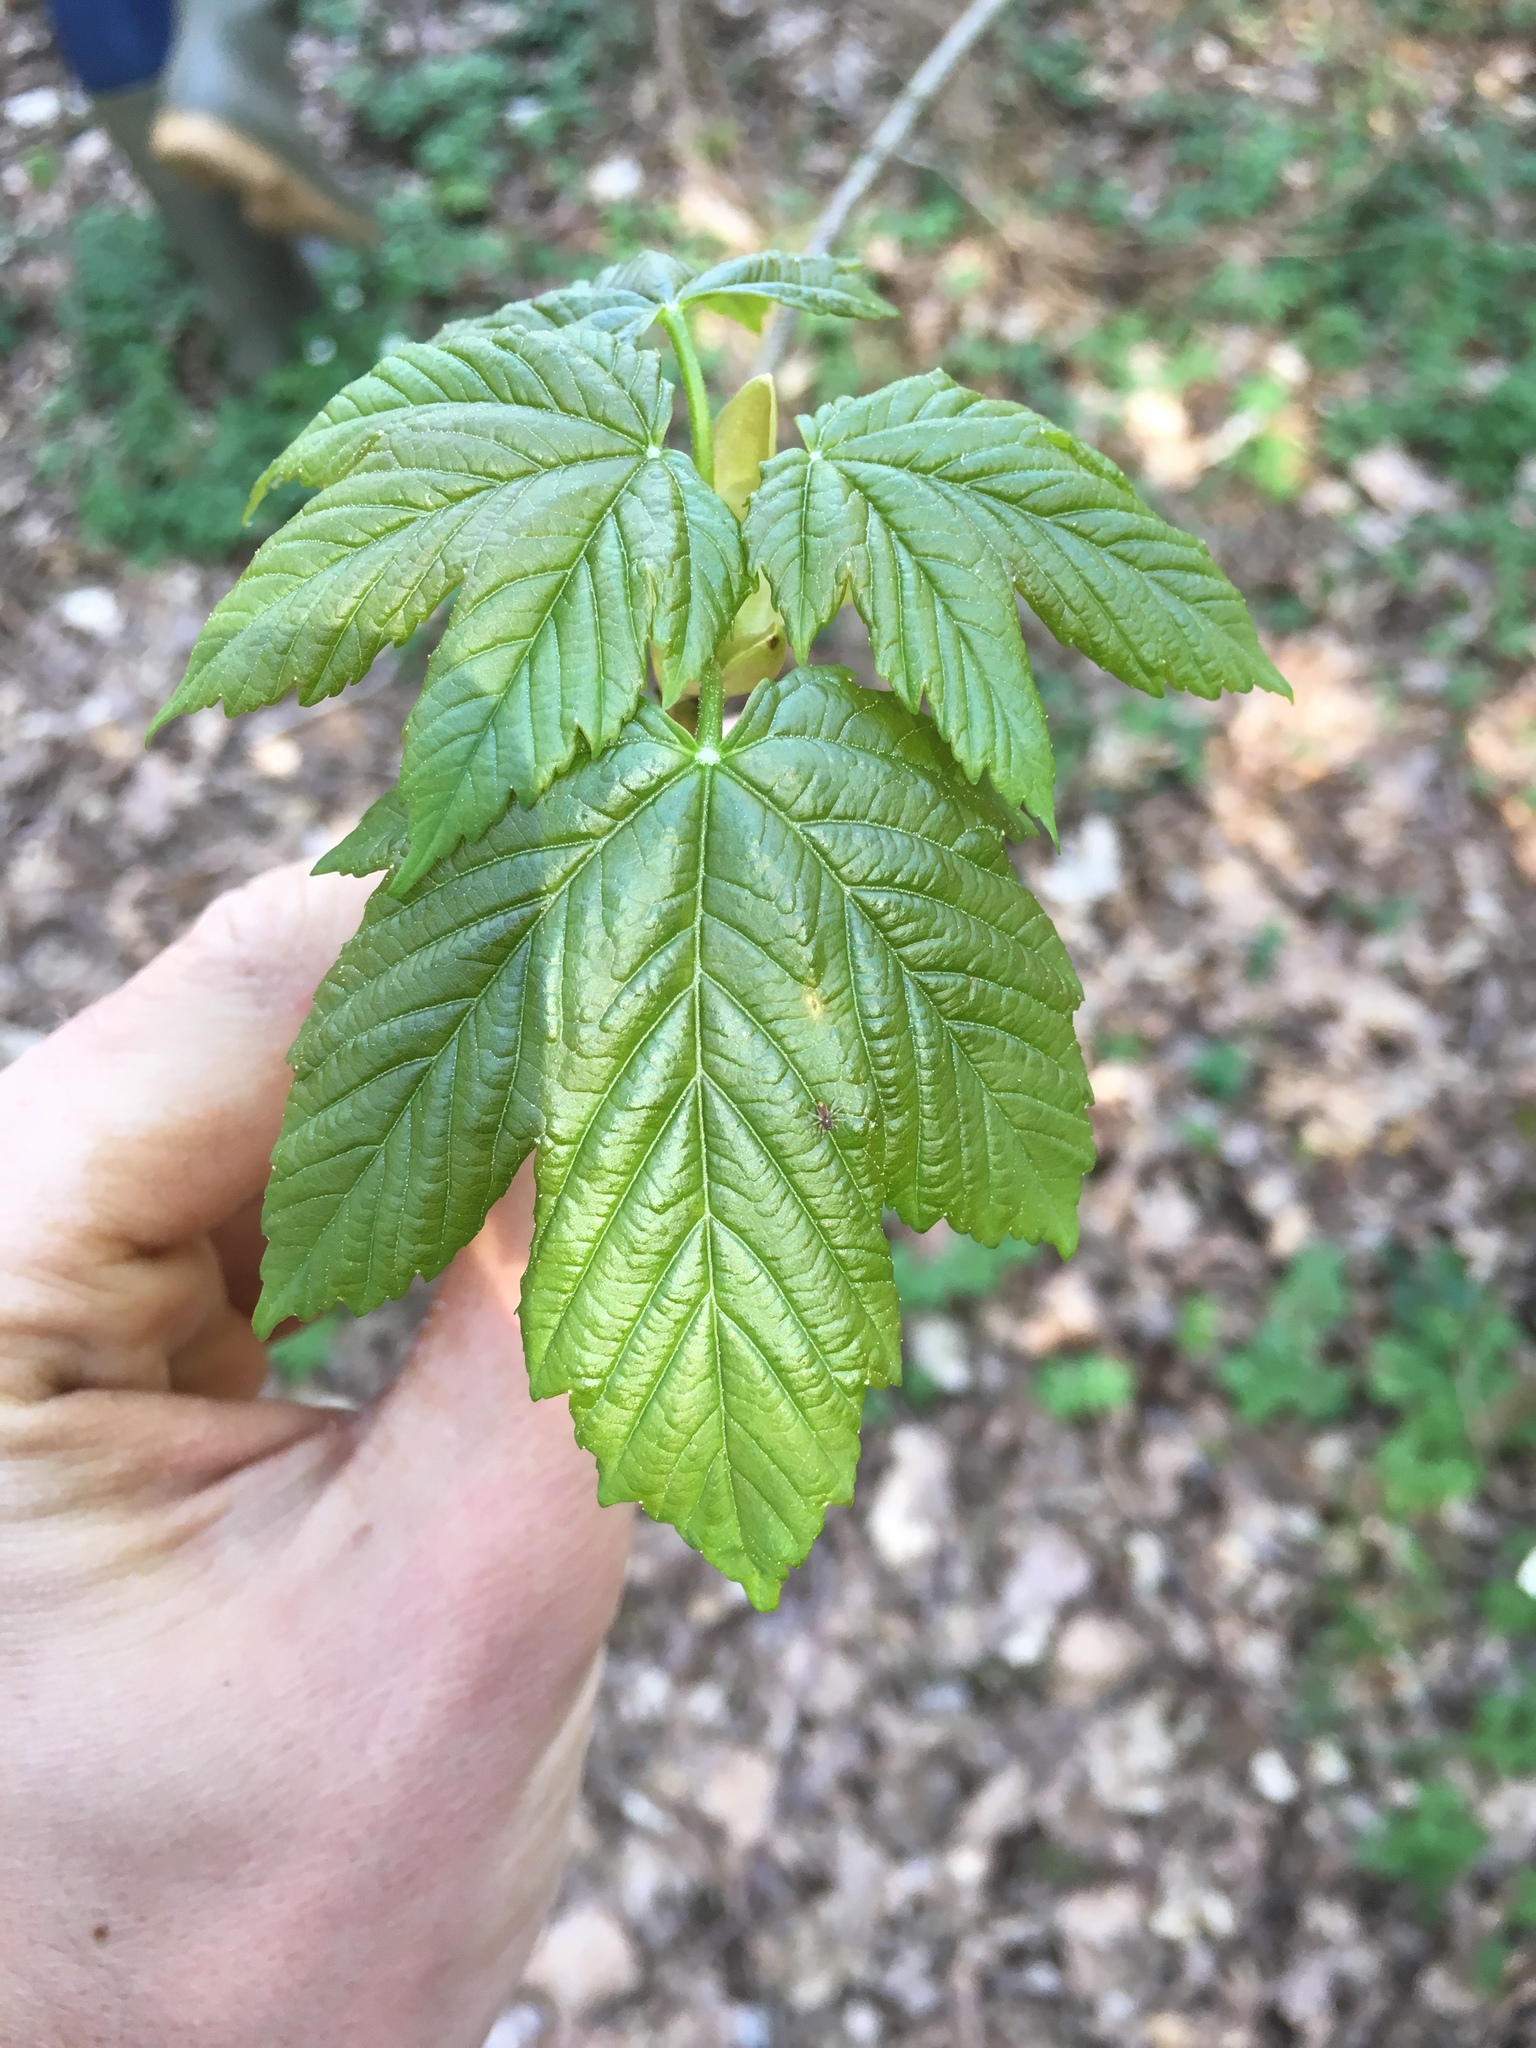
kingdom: Plantae
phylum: Tracheophyta
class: Magnoliopsida
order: Sapindales
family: Sapindaceae
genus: Acer
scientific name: Acer pseudoplatanus
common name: Sycamore
